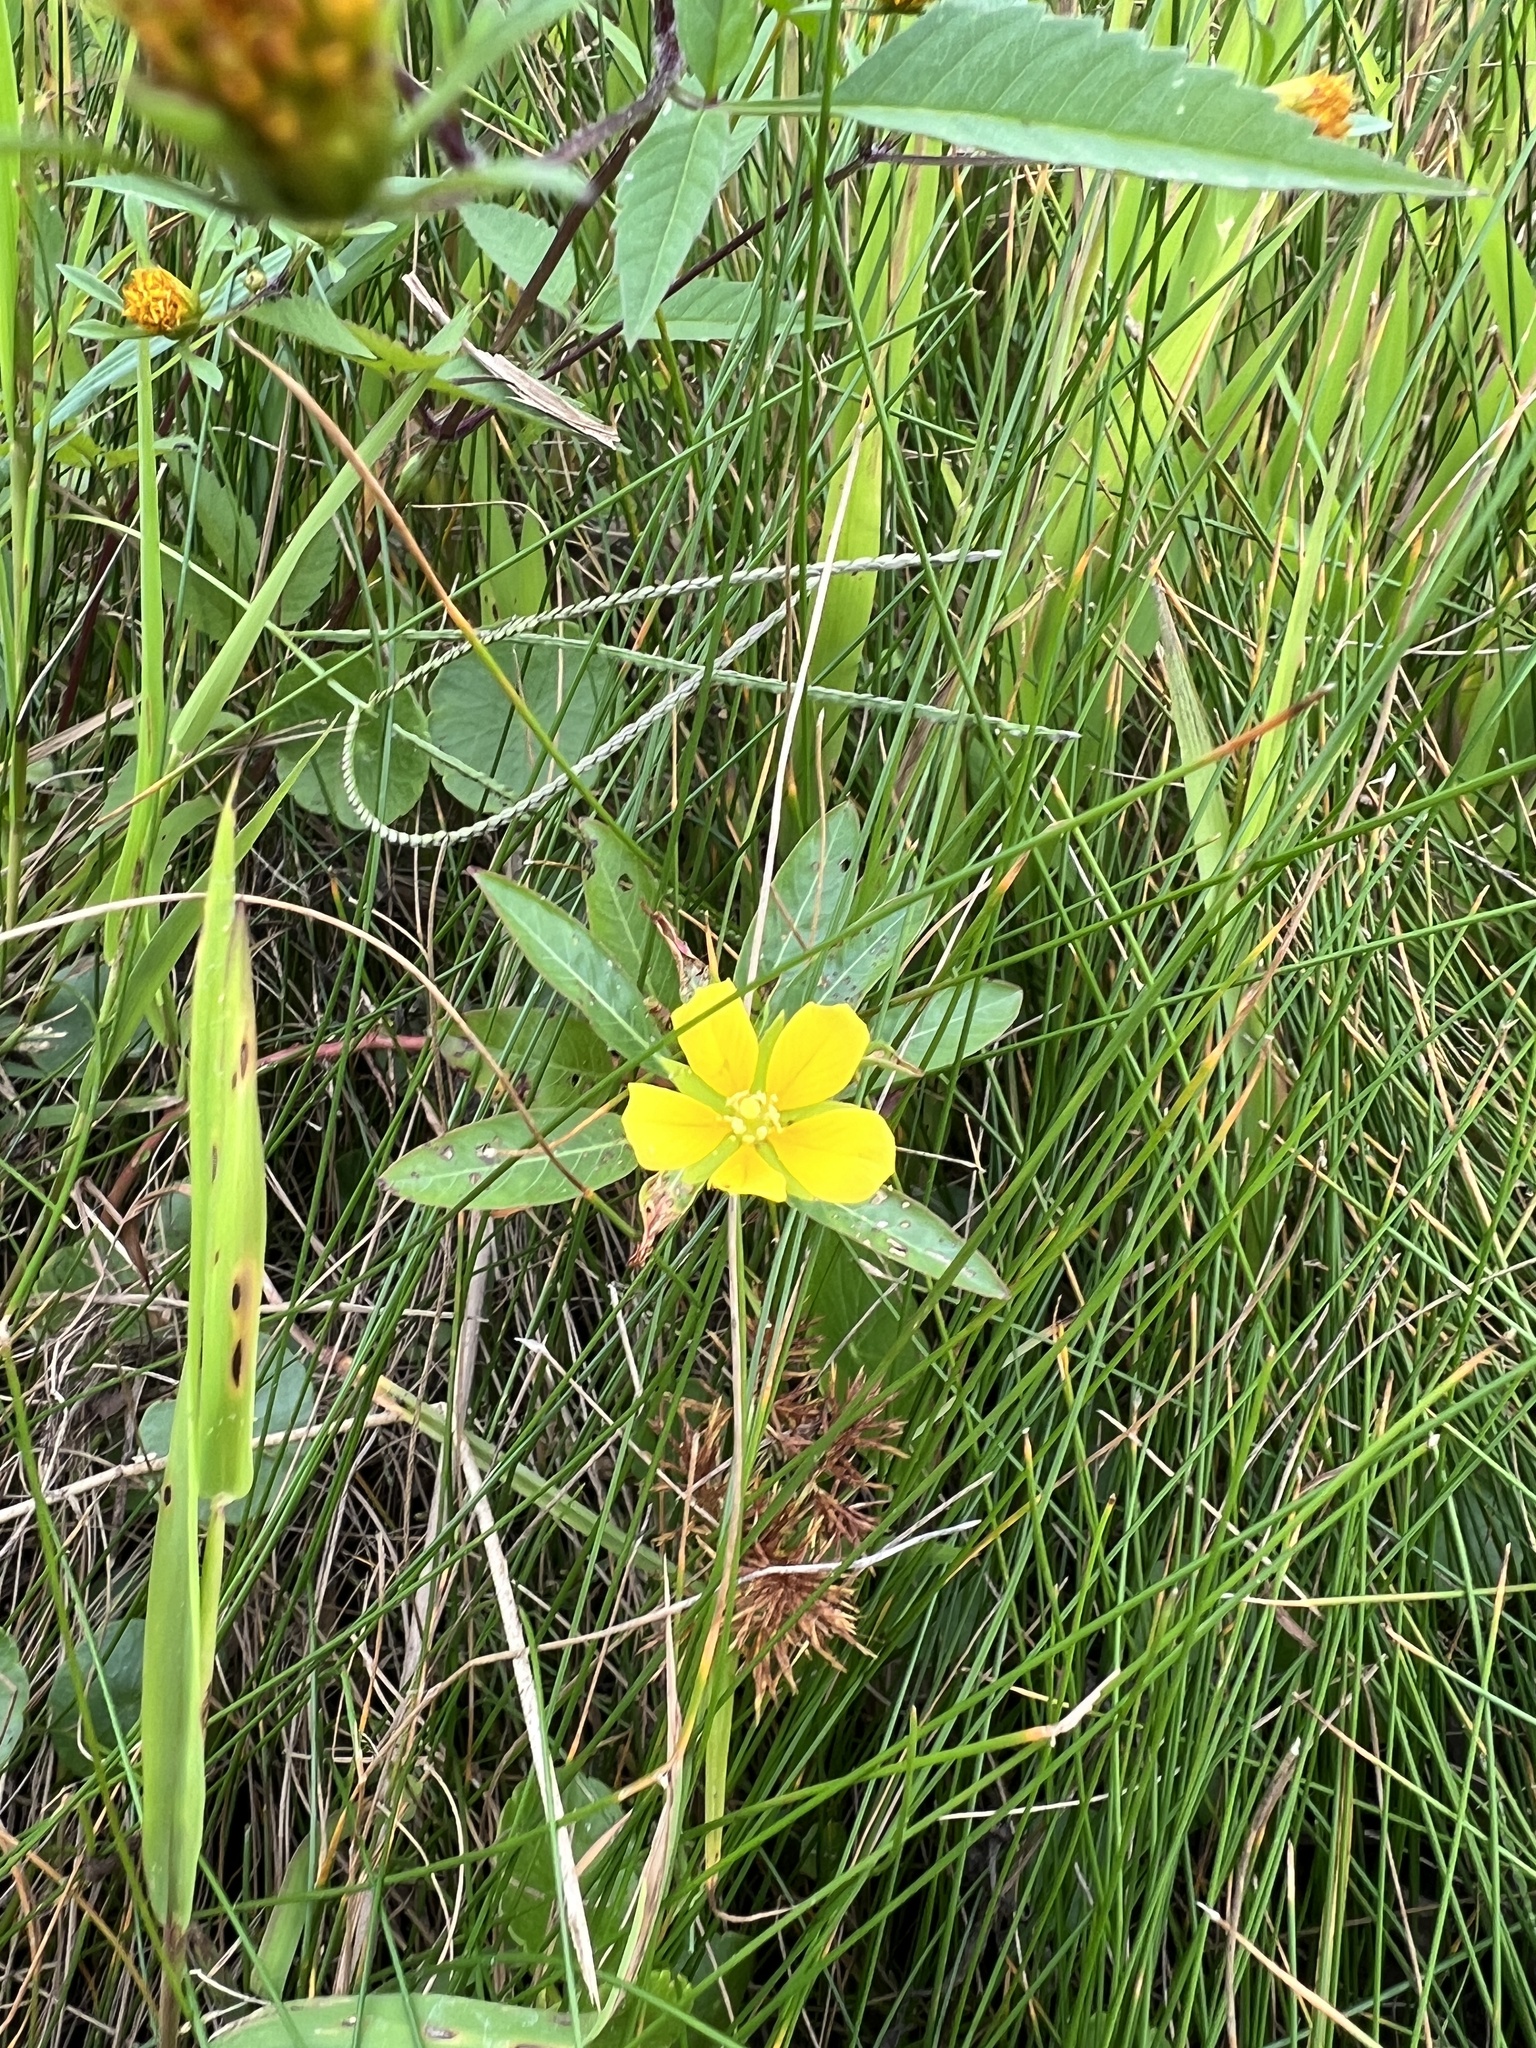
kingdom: Plantae
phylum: Tracheophyta
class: Magnoliopsida
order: Myrtales
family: Onagraceae
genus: Ludwigia
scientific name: Ludwigia peploides
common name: Floating primrose-willow
